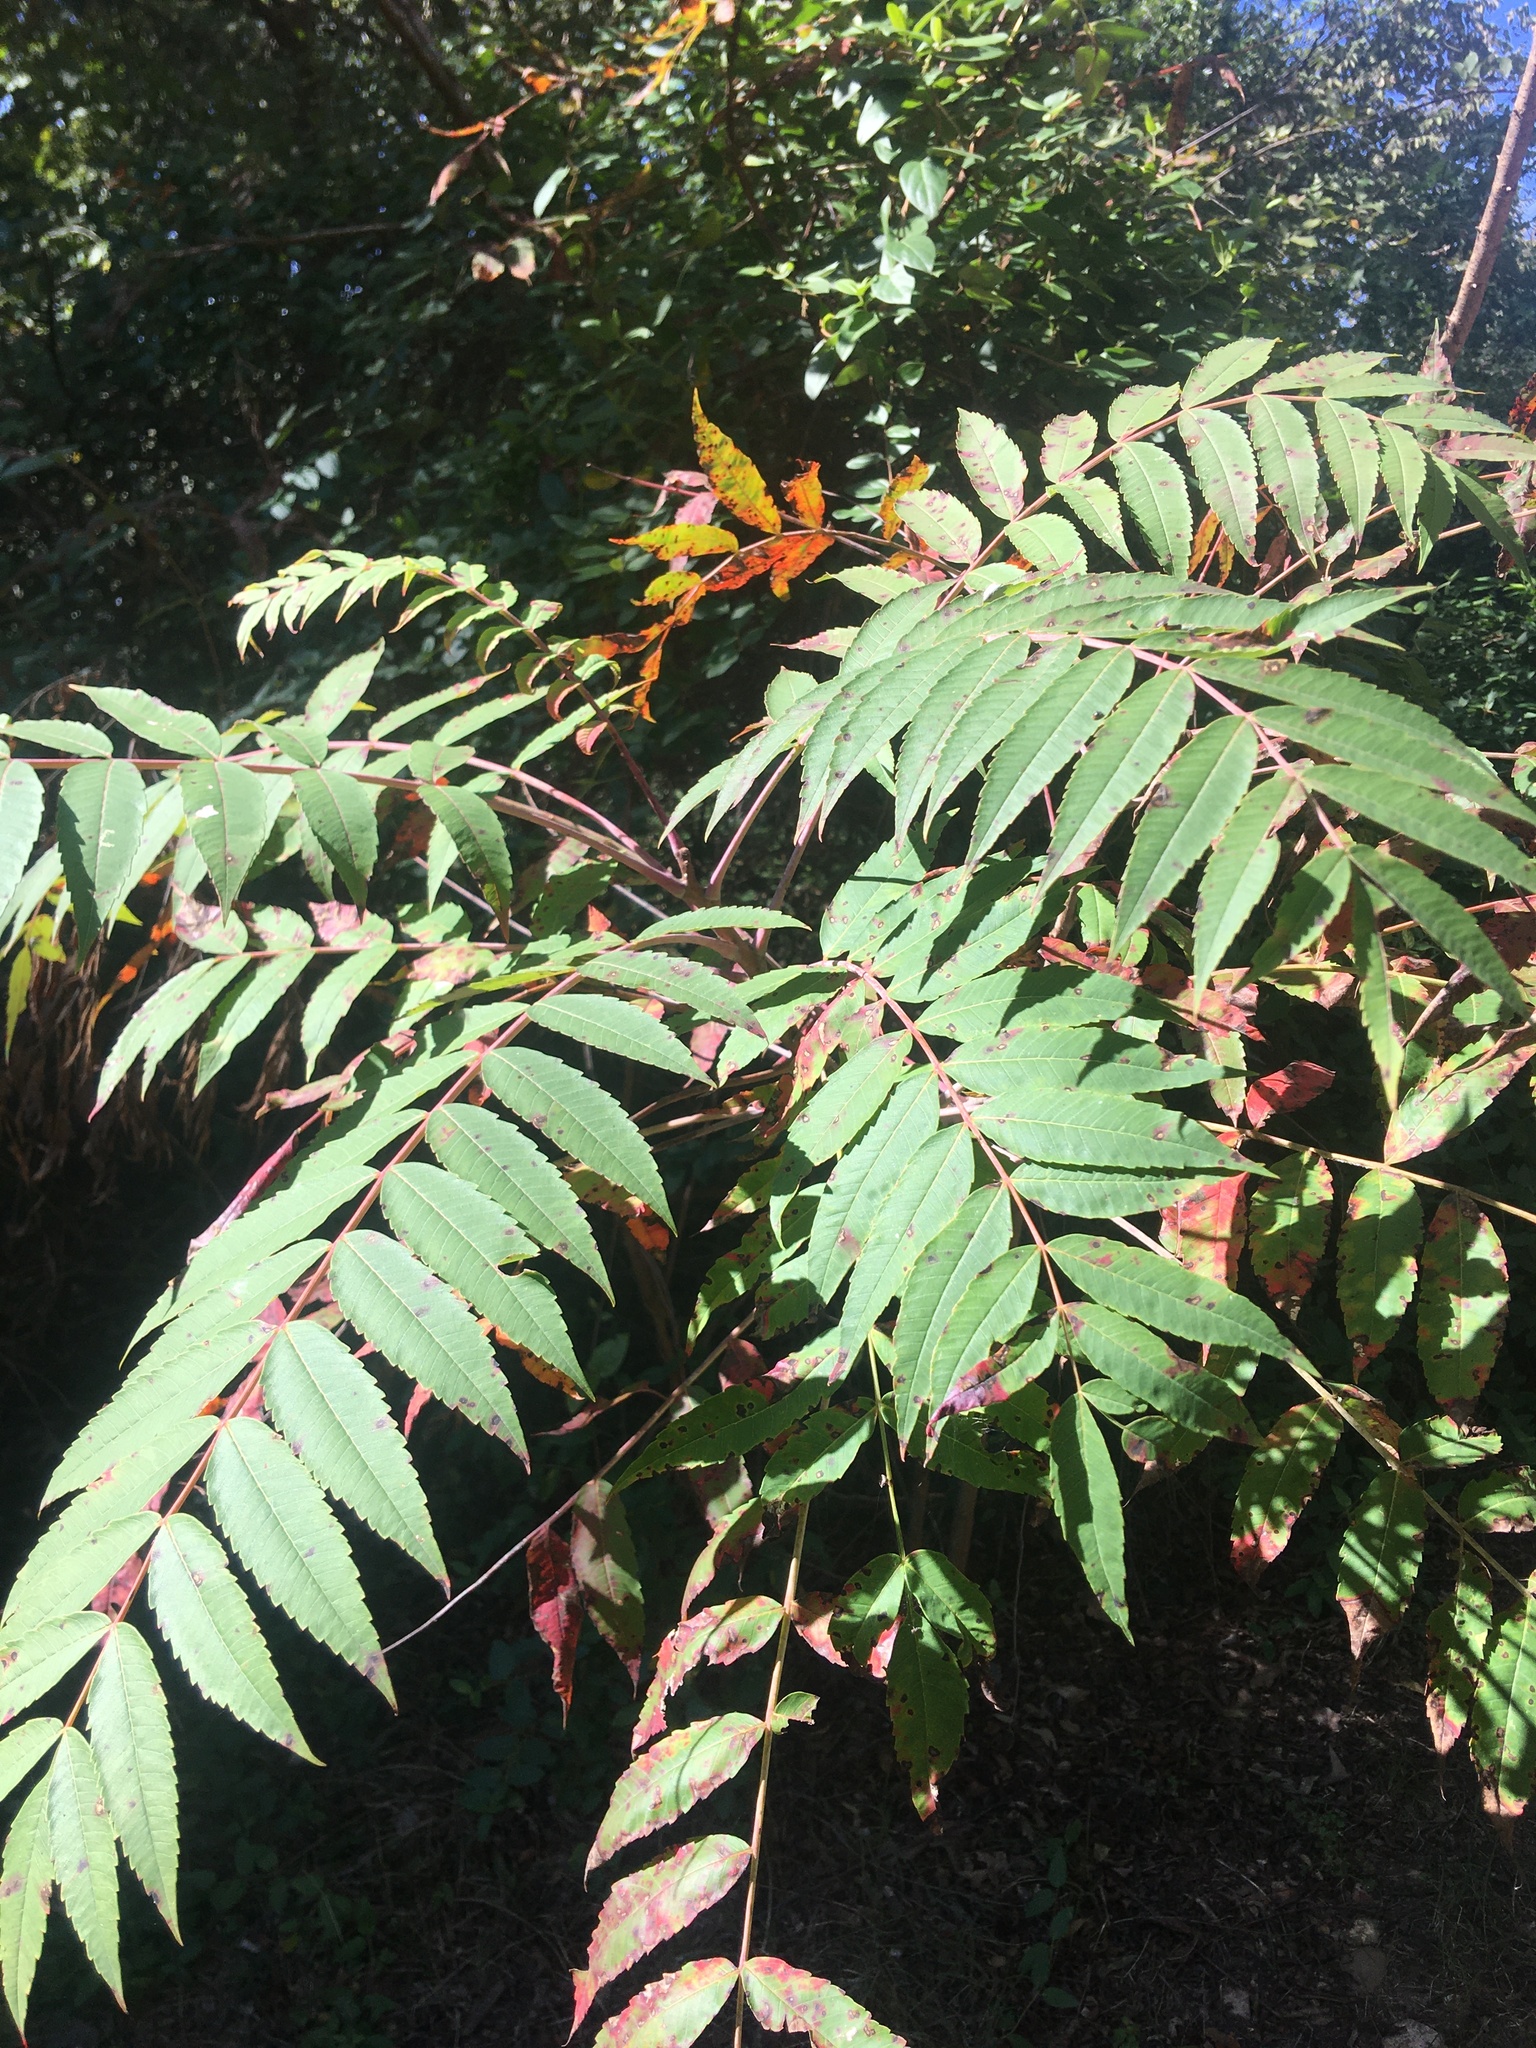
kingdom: Plantae
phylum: Tracheophyta
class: Magnoliopsida
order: Sapindales
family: Anacardiaceae
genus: Rhus
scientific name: Rhus glabra
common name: Scarlet sumac
